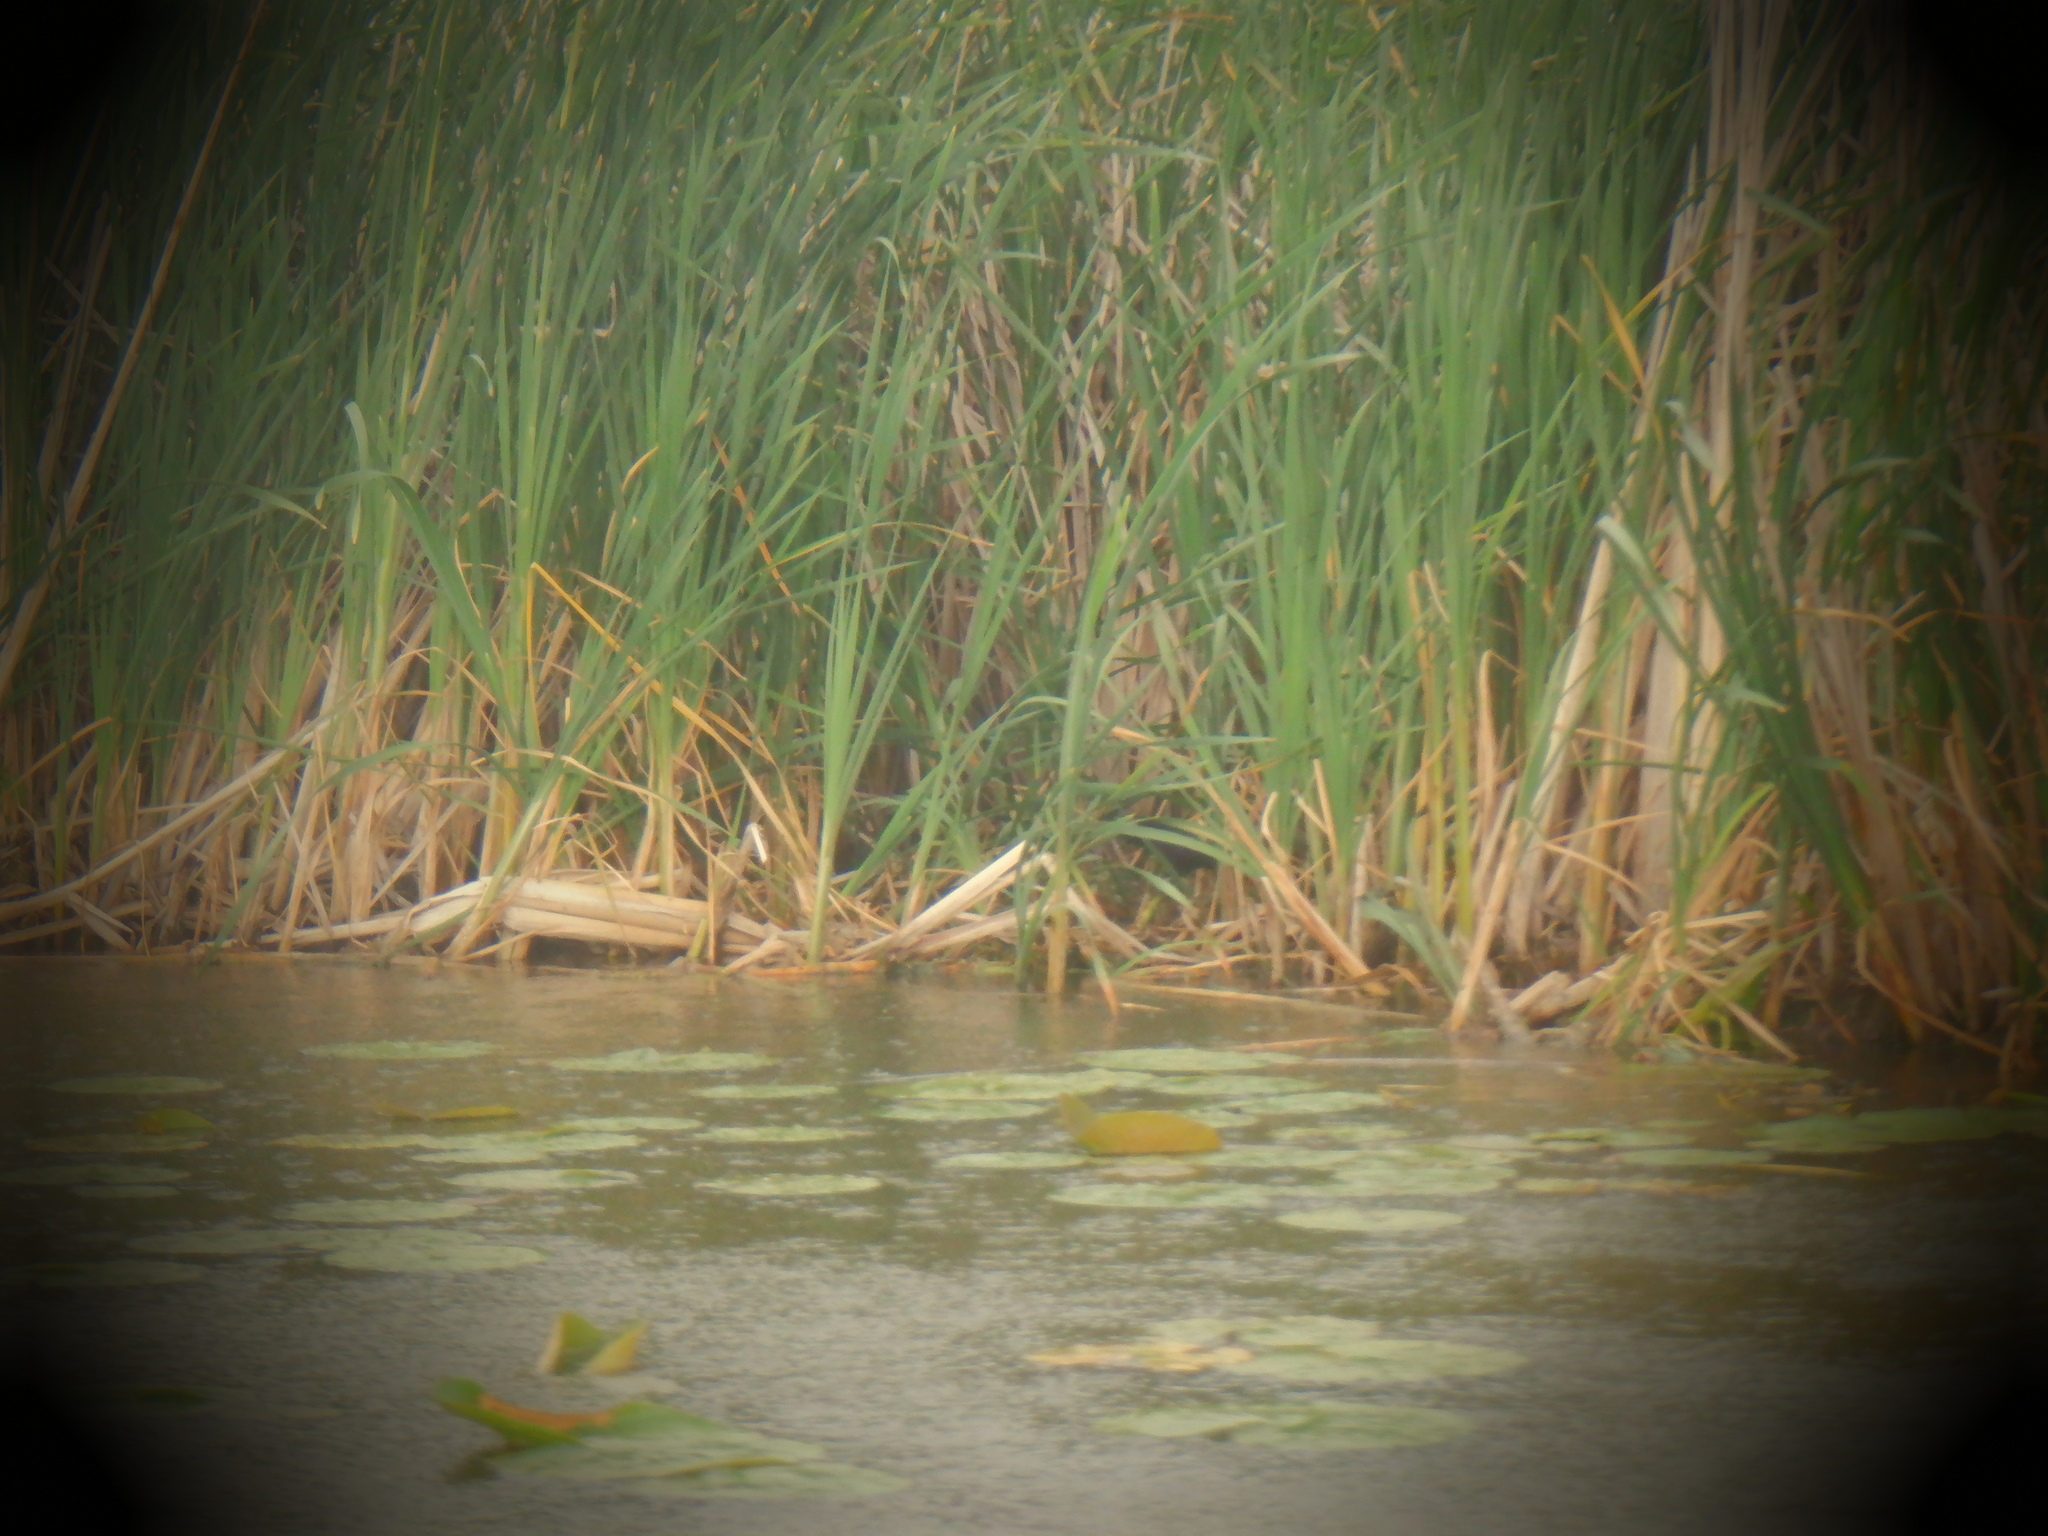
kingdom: Animalia
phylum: Chordata
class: Aves
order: Passeriformes
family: Icteridae
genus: Agelaius
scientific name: Agelaius phoeniceus
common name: Red-winged blackbird
